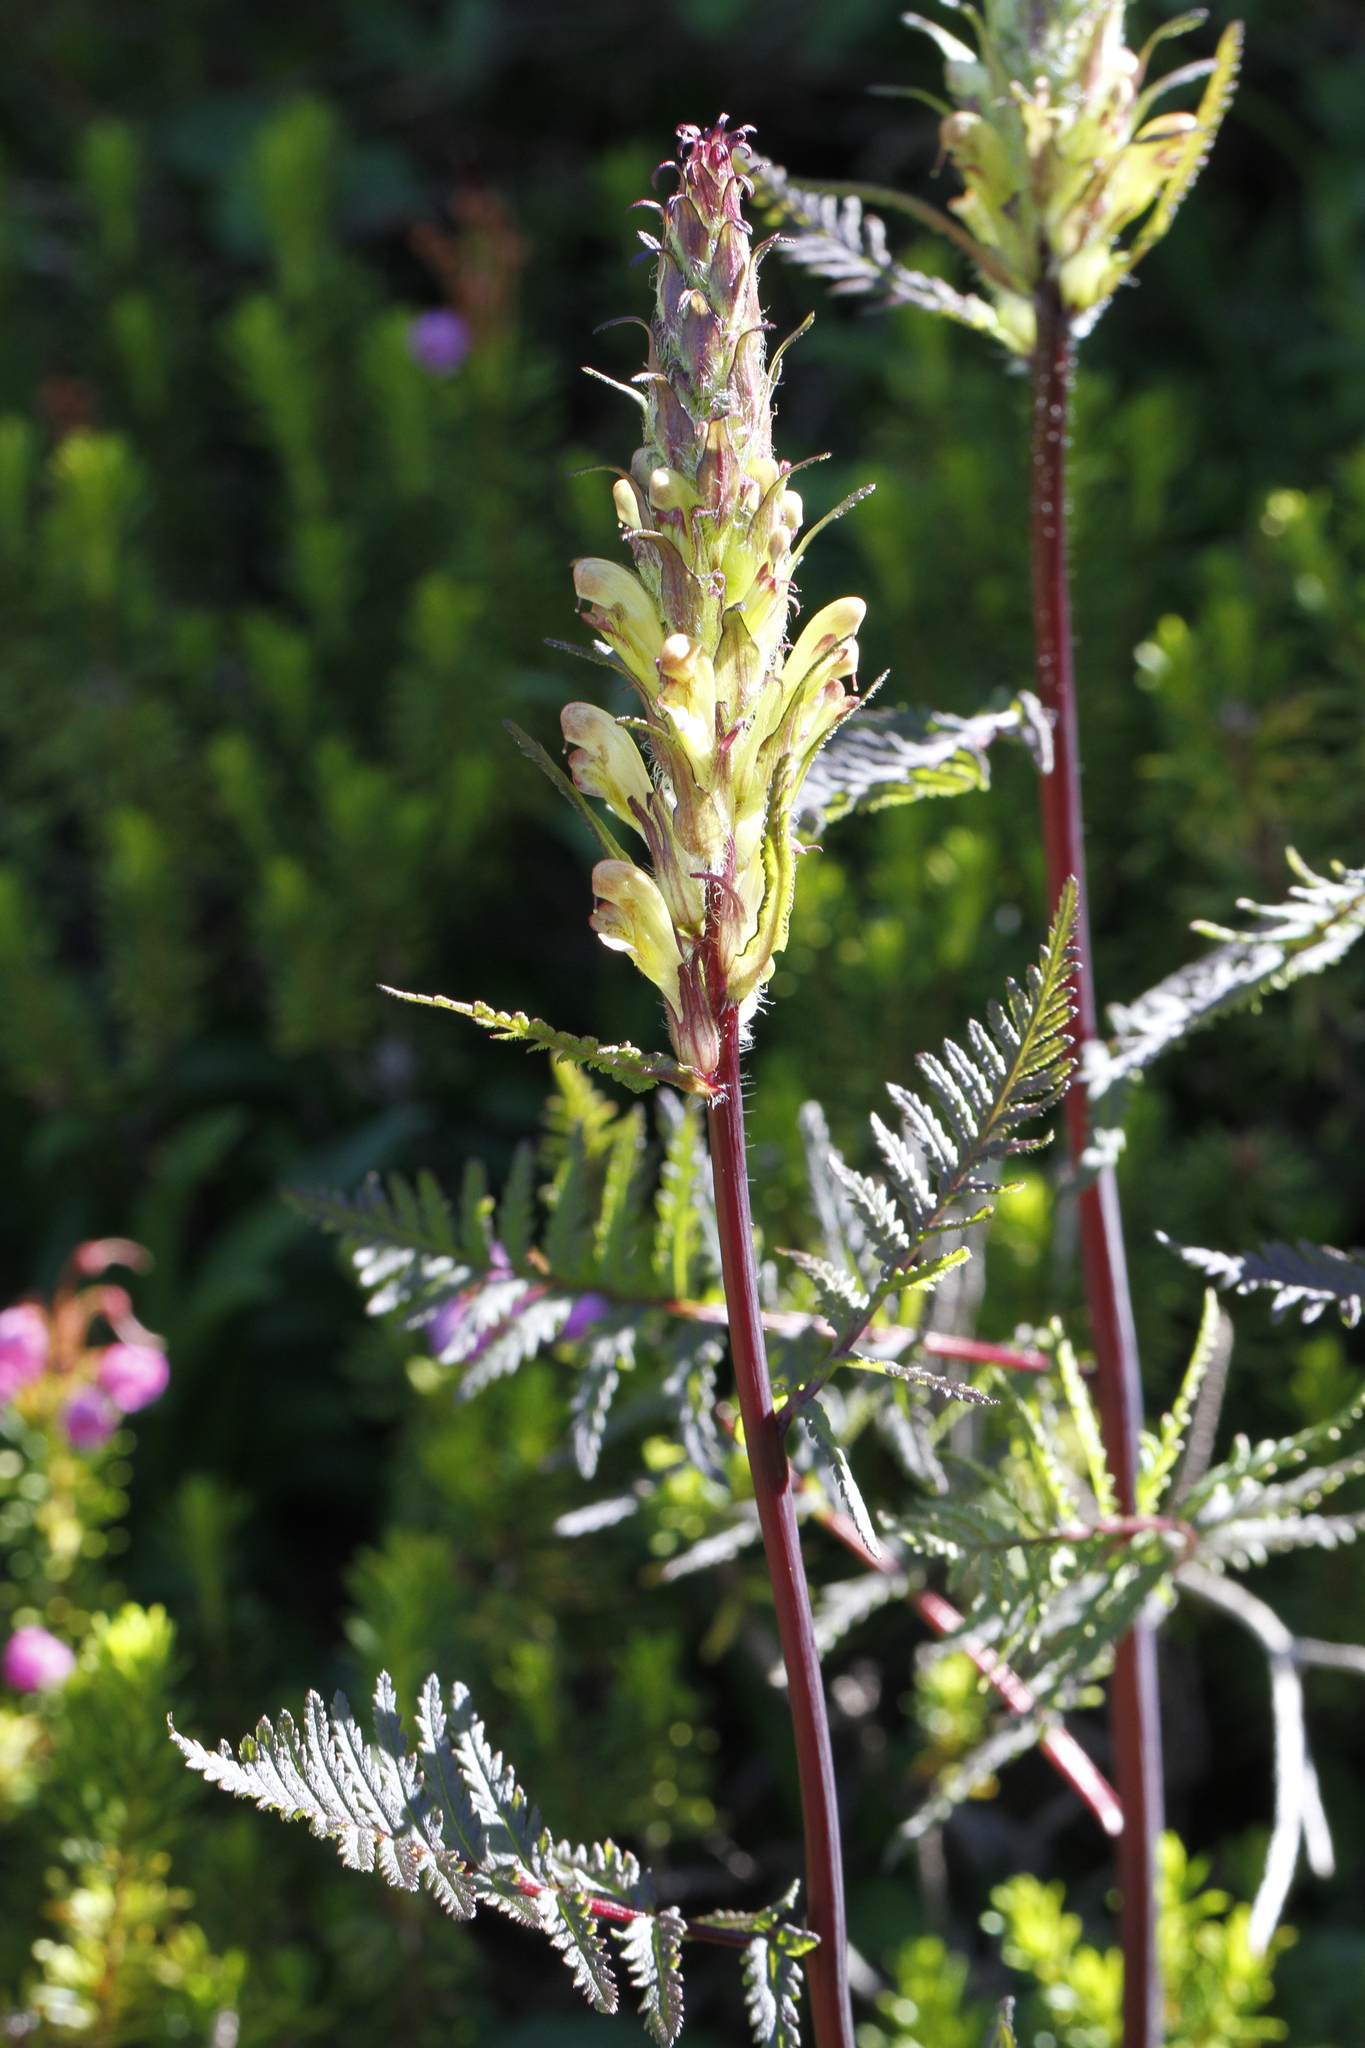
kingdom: Plantae
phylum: Tracheophyta
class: Magnoliopsida
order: Lamiales
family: Orobanchaceae
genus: Pedicularis
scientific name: Pedicularis bracteosa
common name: Bracted lousewort
